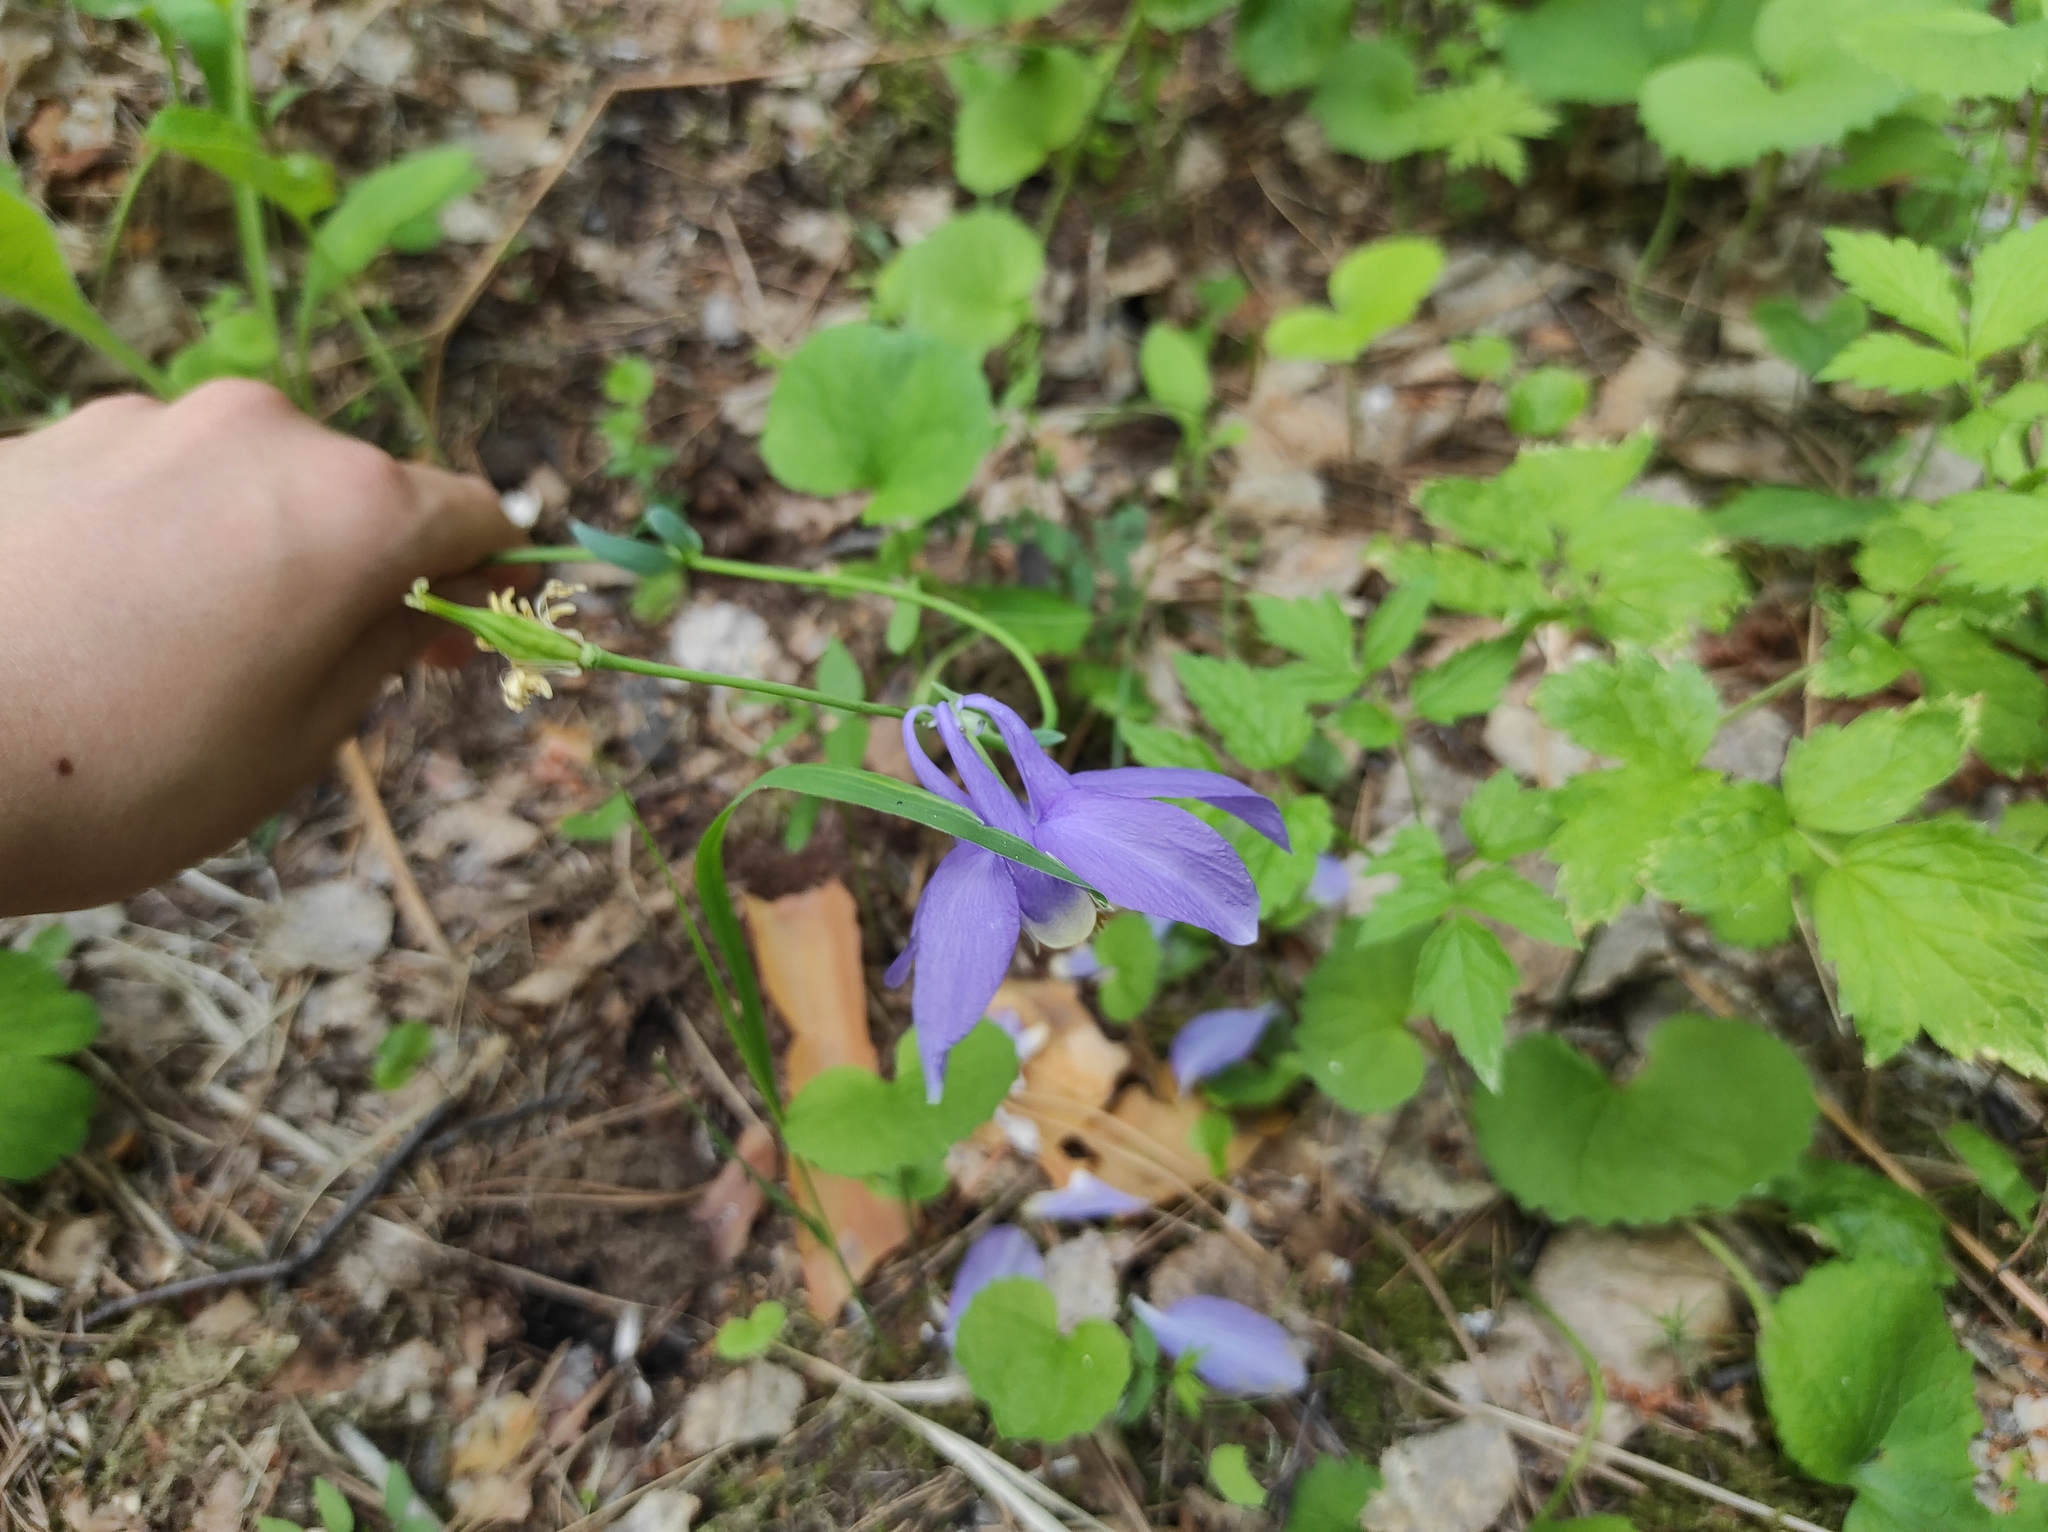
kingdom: Plantae
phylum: Tracheophyta
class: Magnoliopsida
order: Ranunculales
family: Ranunculaceae
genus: Aquilegia
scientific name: Aquilegia sibirica
